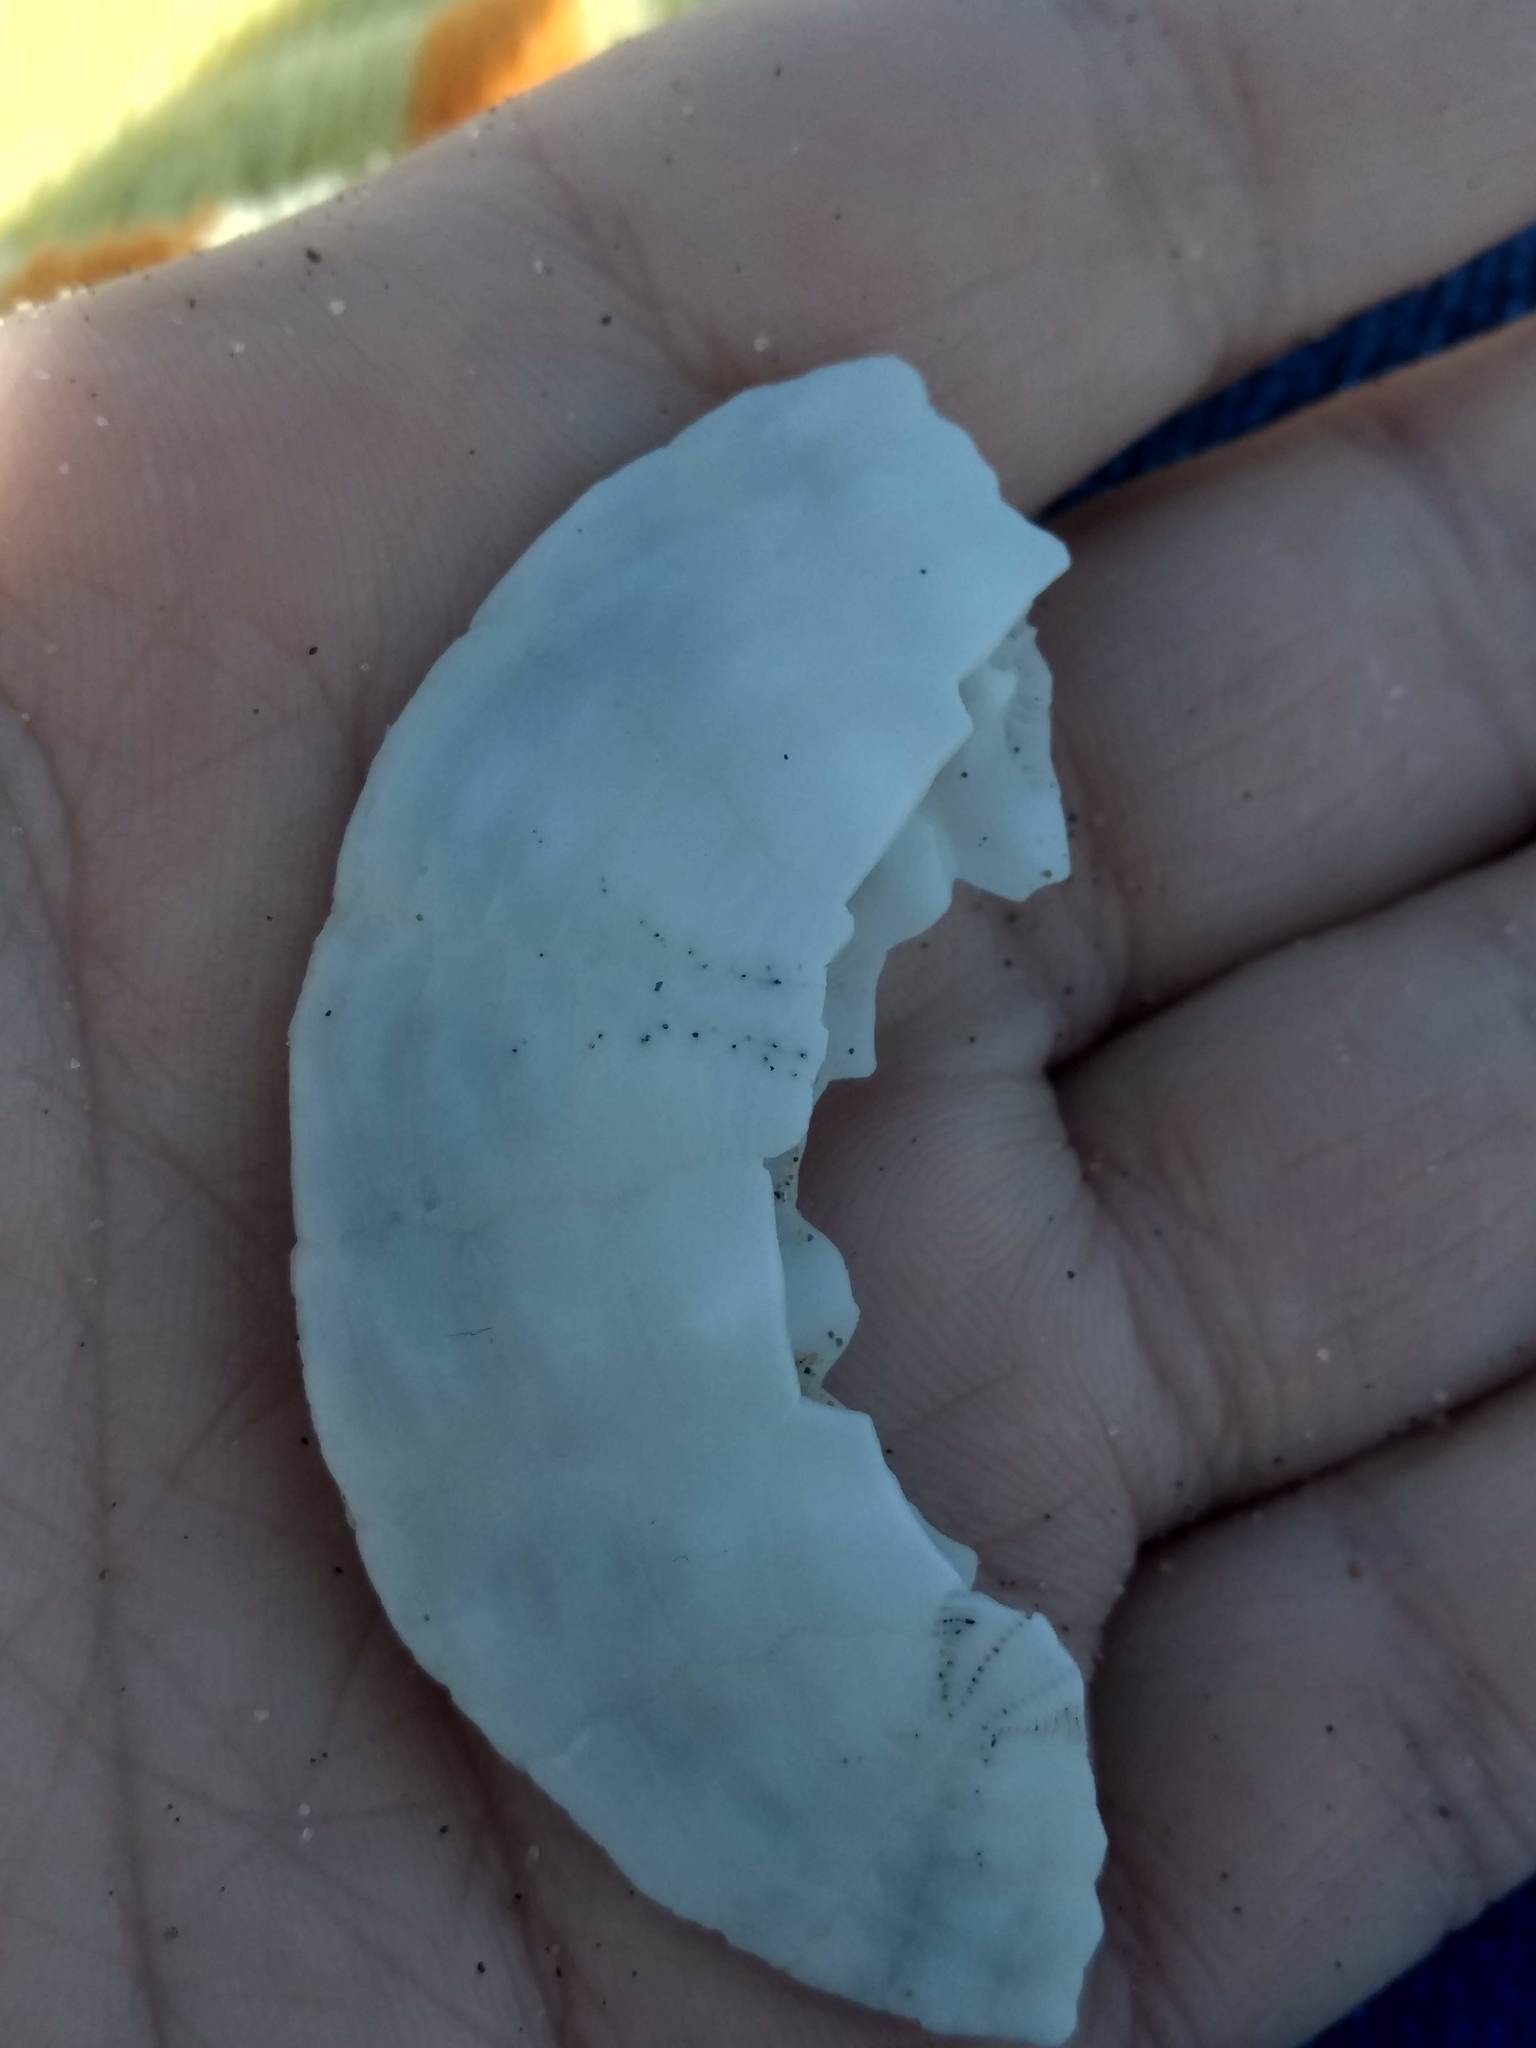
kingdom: Animalia
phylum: Echinodermata
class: Echinoidea
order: Echinolampadacea
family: Dendrasteridae
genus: Dendraster
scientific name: Dendraster excentricus
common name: Eccentric sand dollar sea urchin
